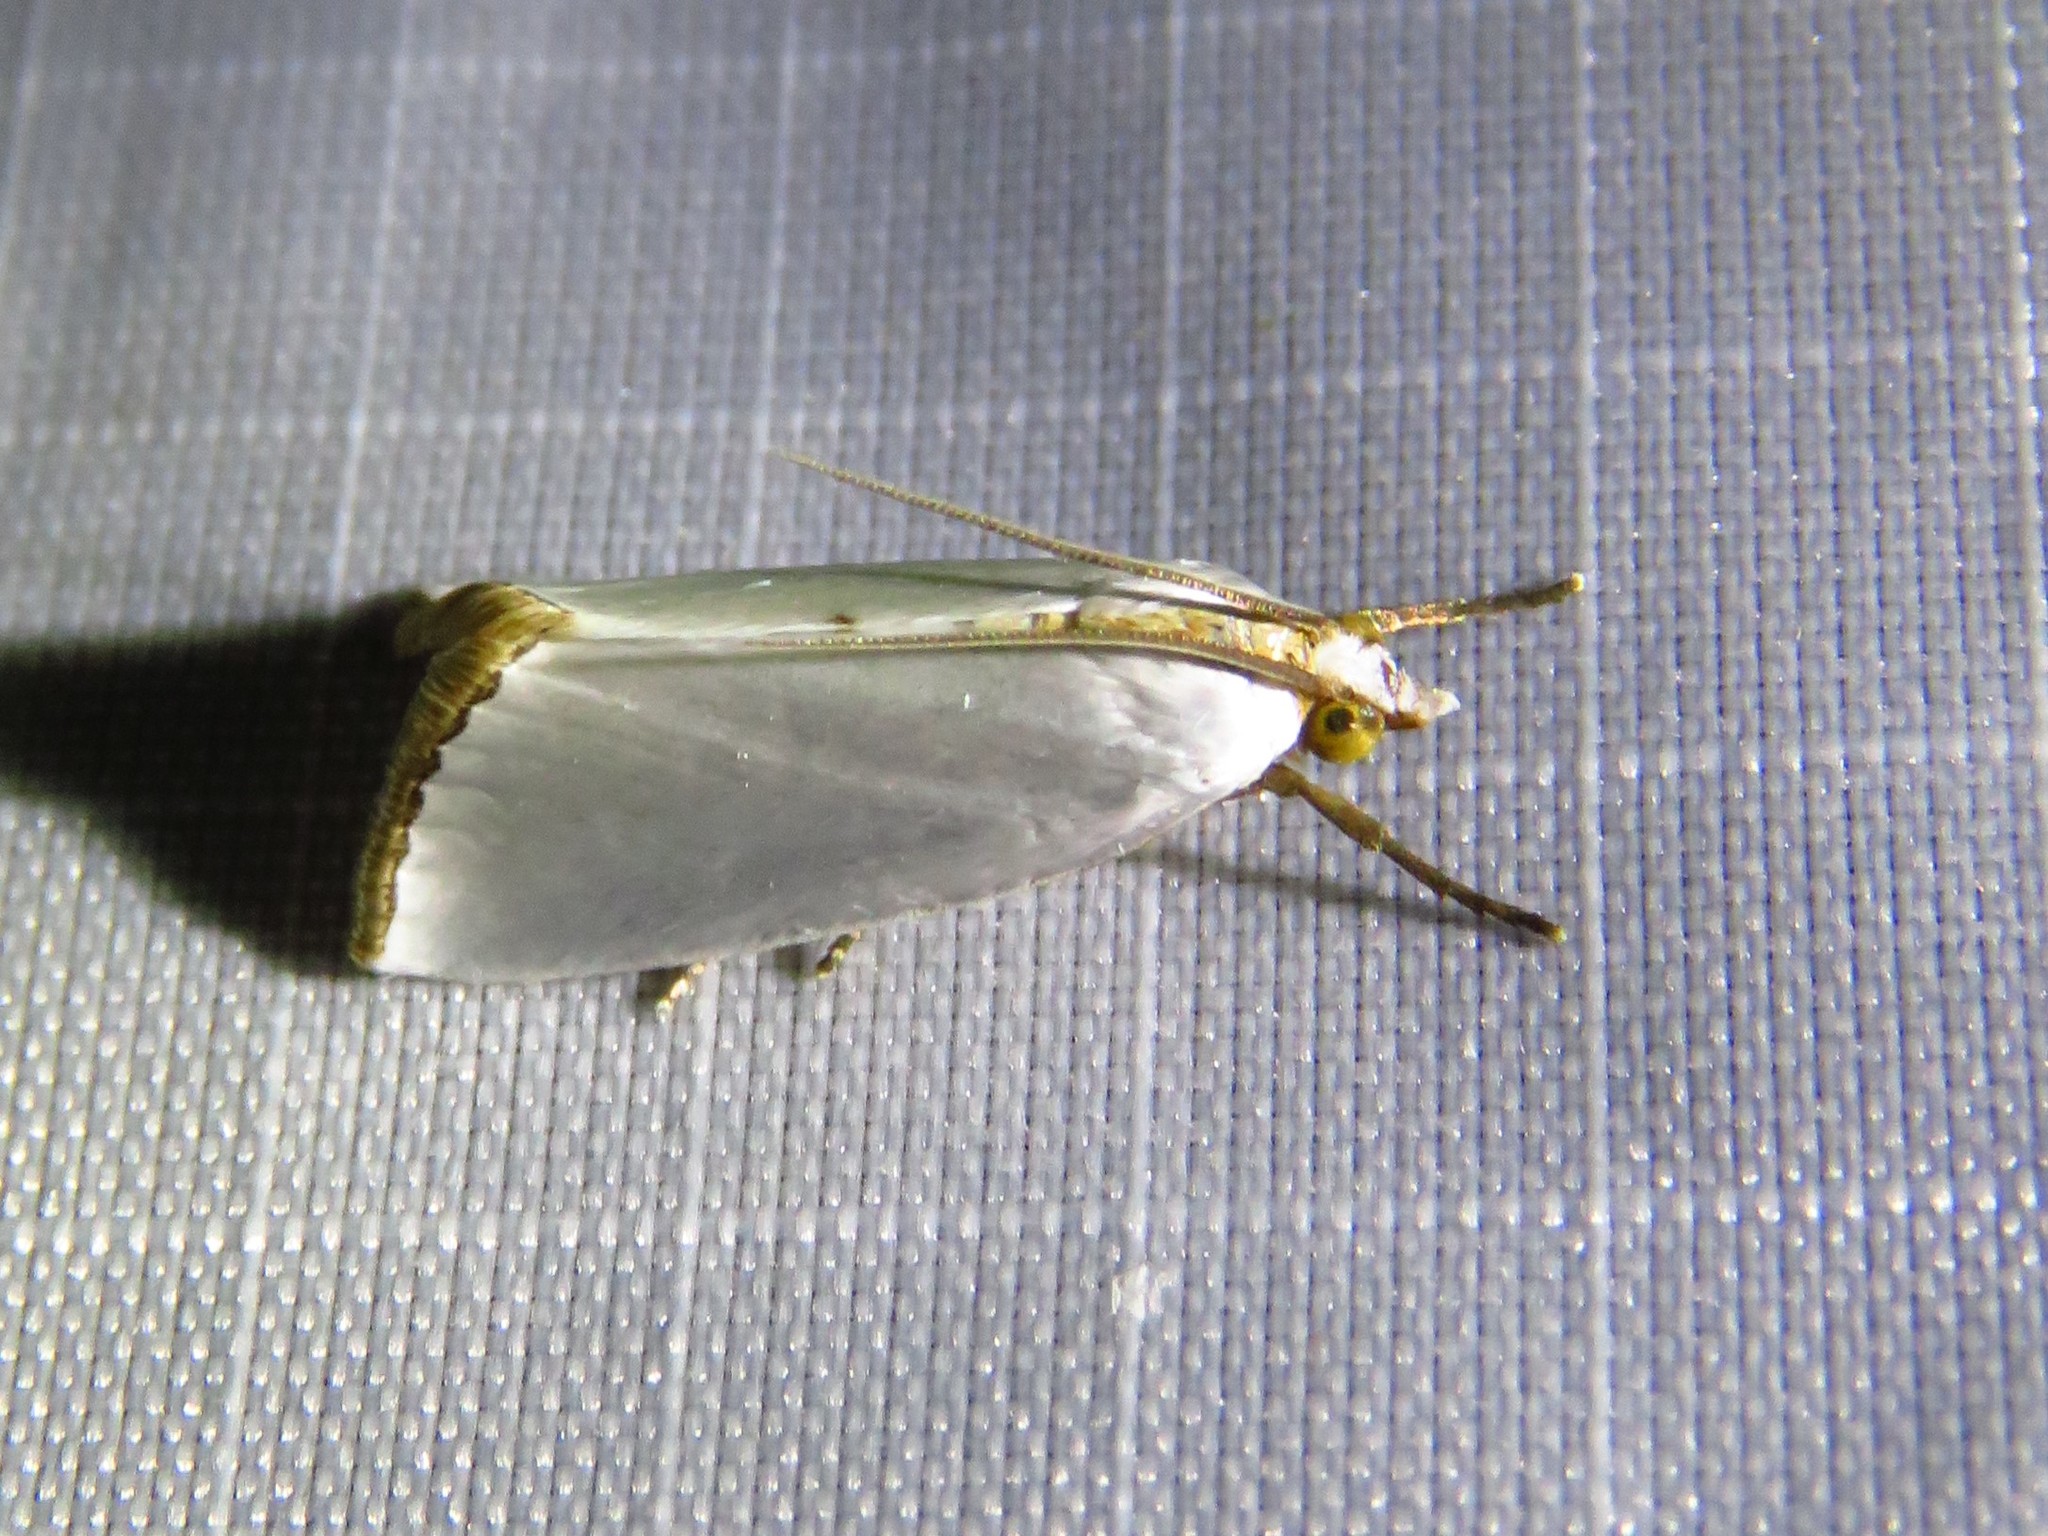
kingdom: Animalia
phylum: Arthropoda
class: Insecta
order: Lepidoptera
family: Crambidae
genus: Argyria
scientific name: Argyria nivalis
